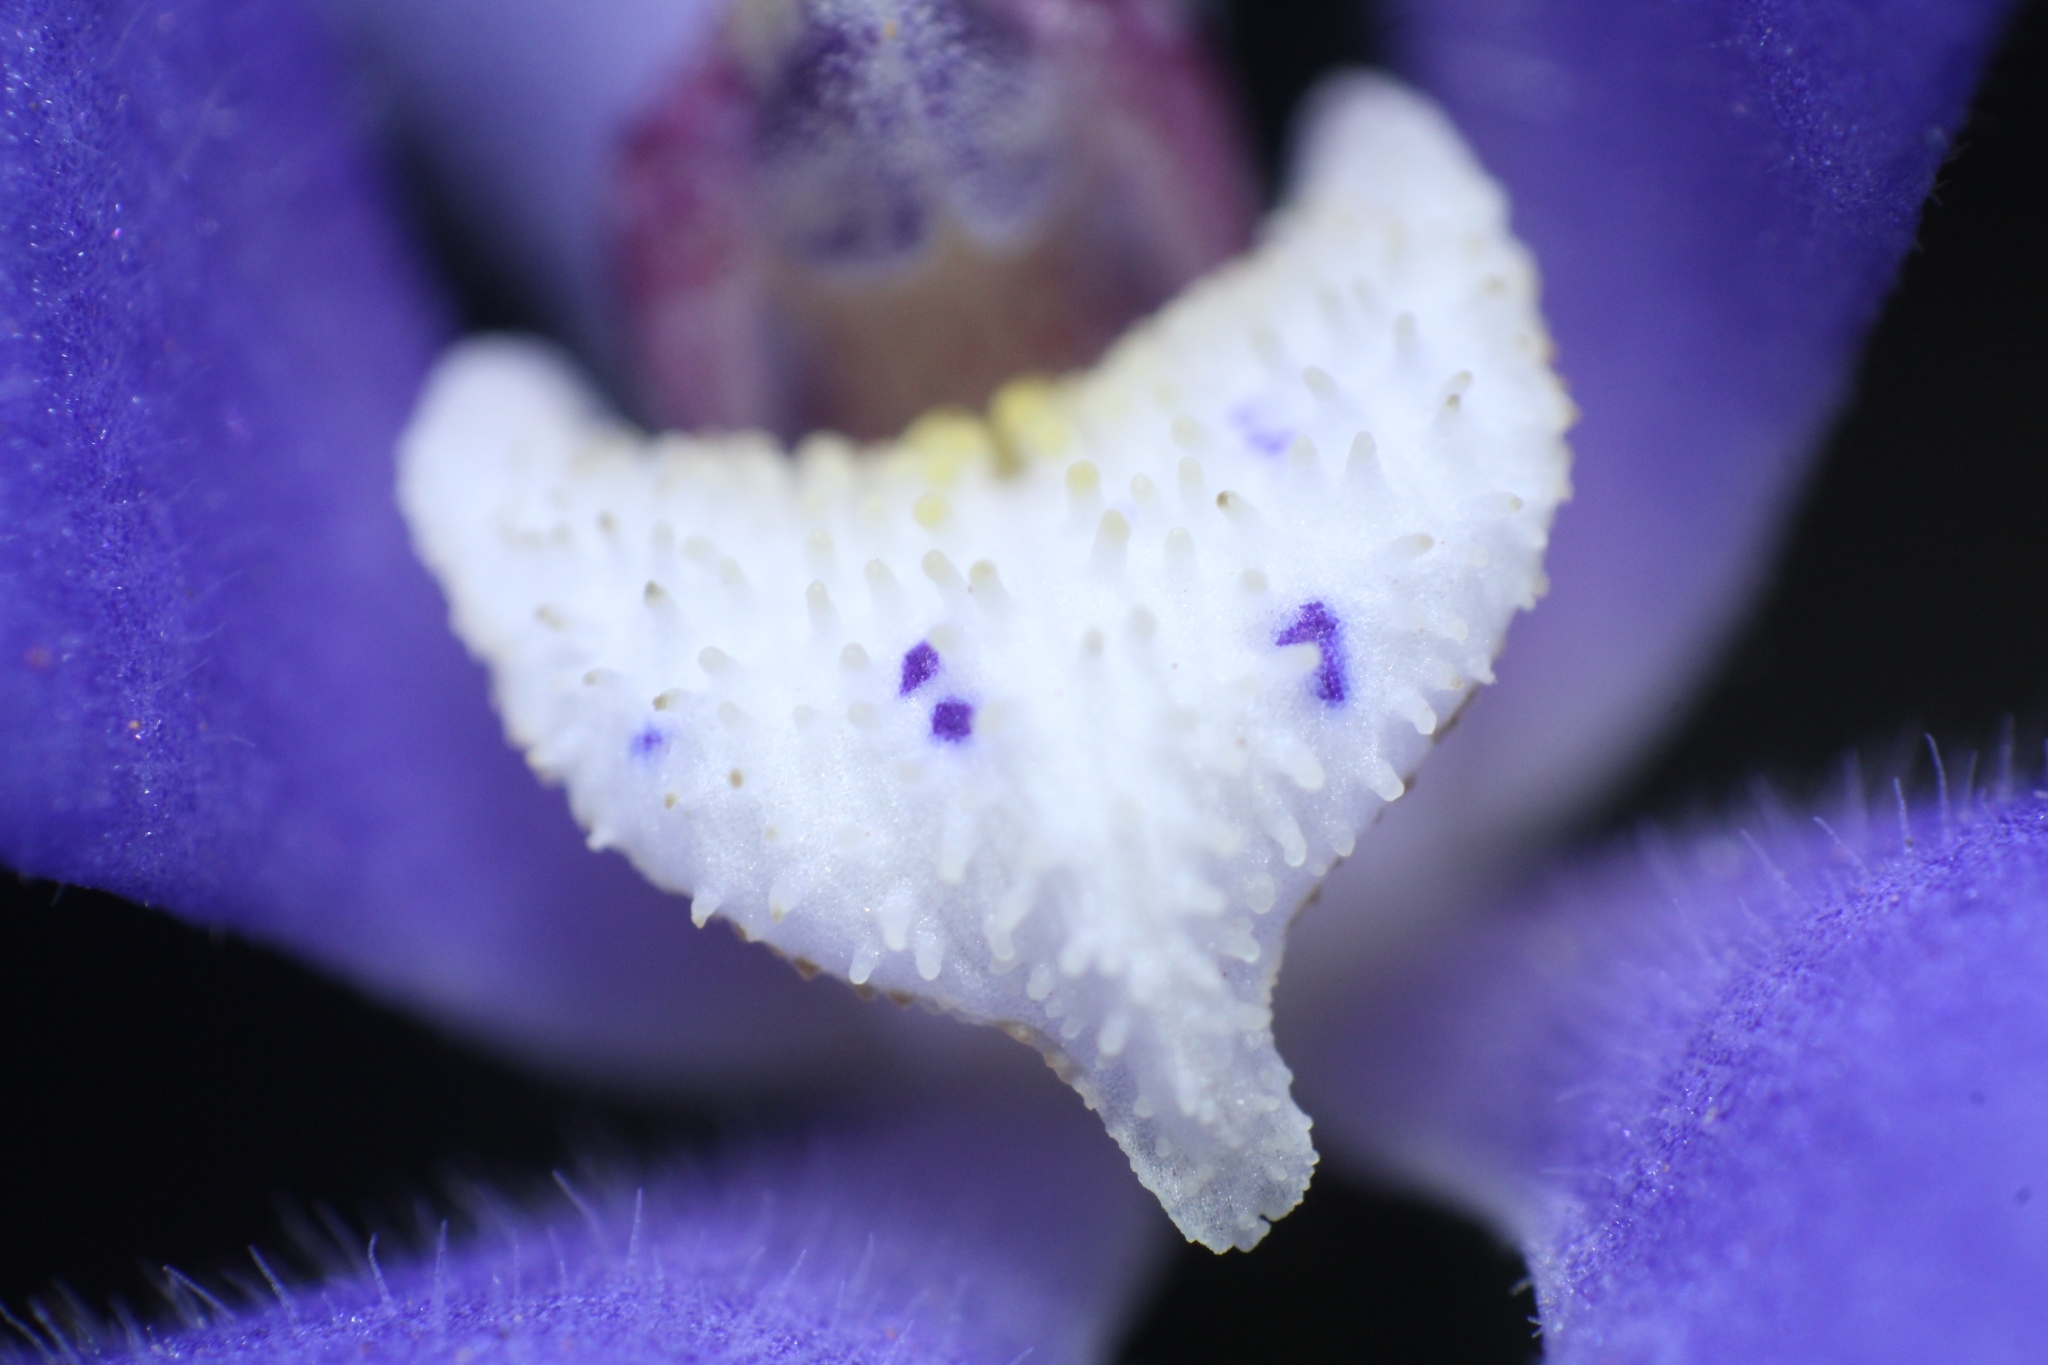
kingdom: Plantae
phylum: Tracheophyta
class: Liliopsida
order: Asparagales
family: Orchidaceae
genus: Caladenia
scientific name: Caladenia gemmata
